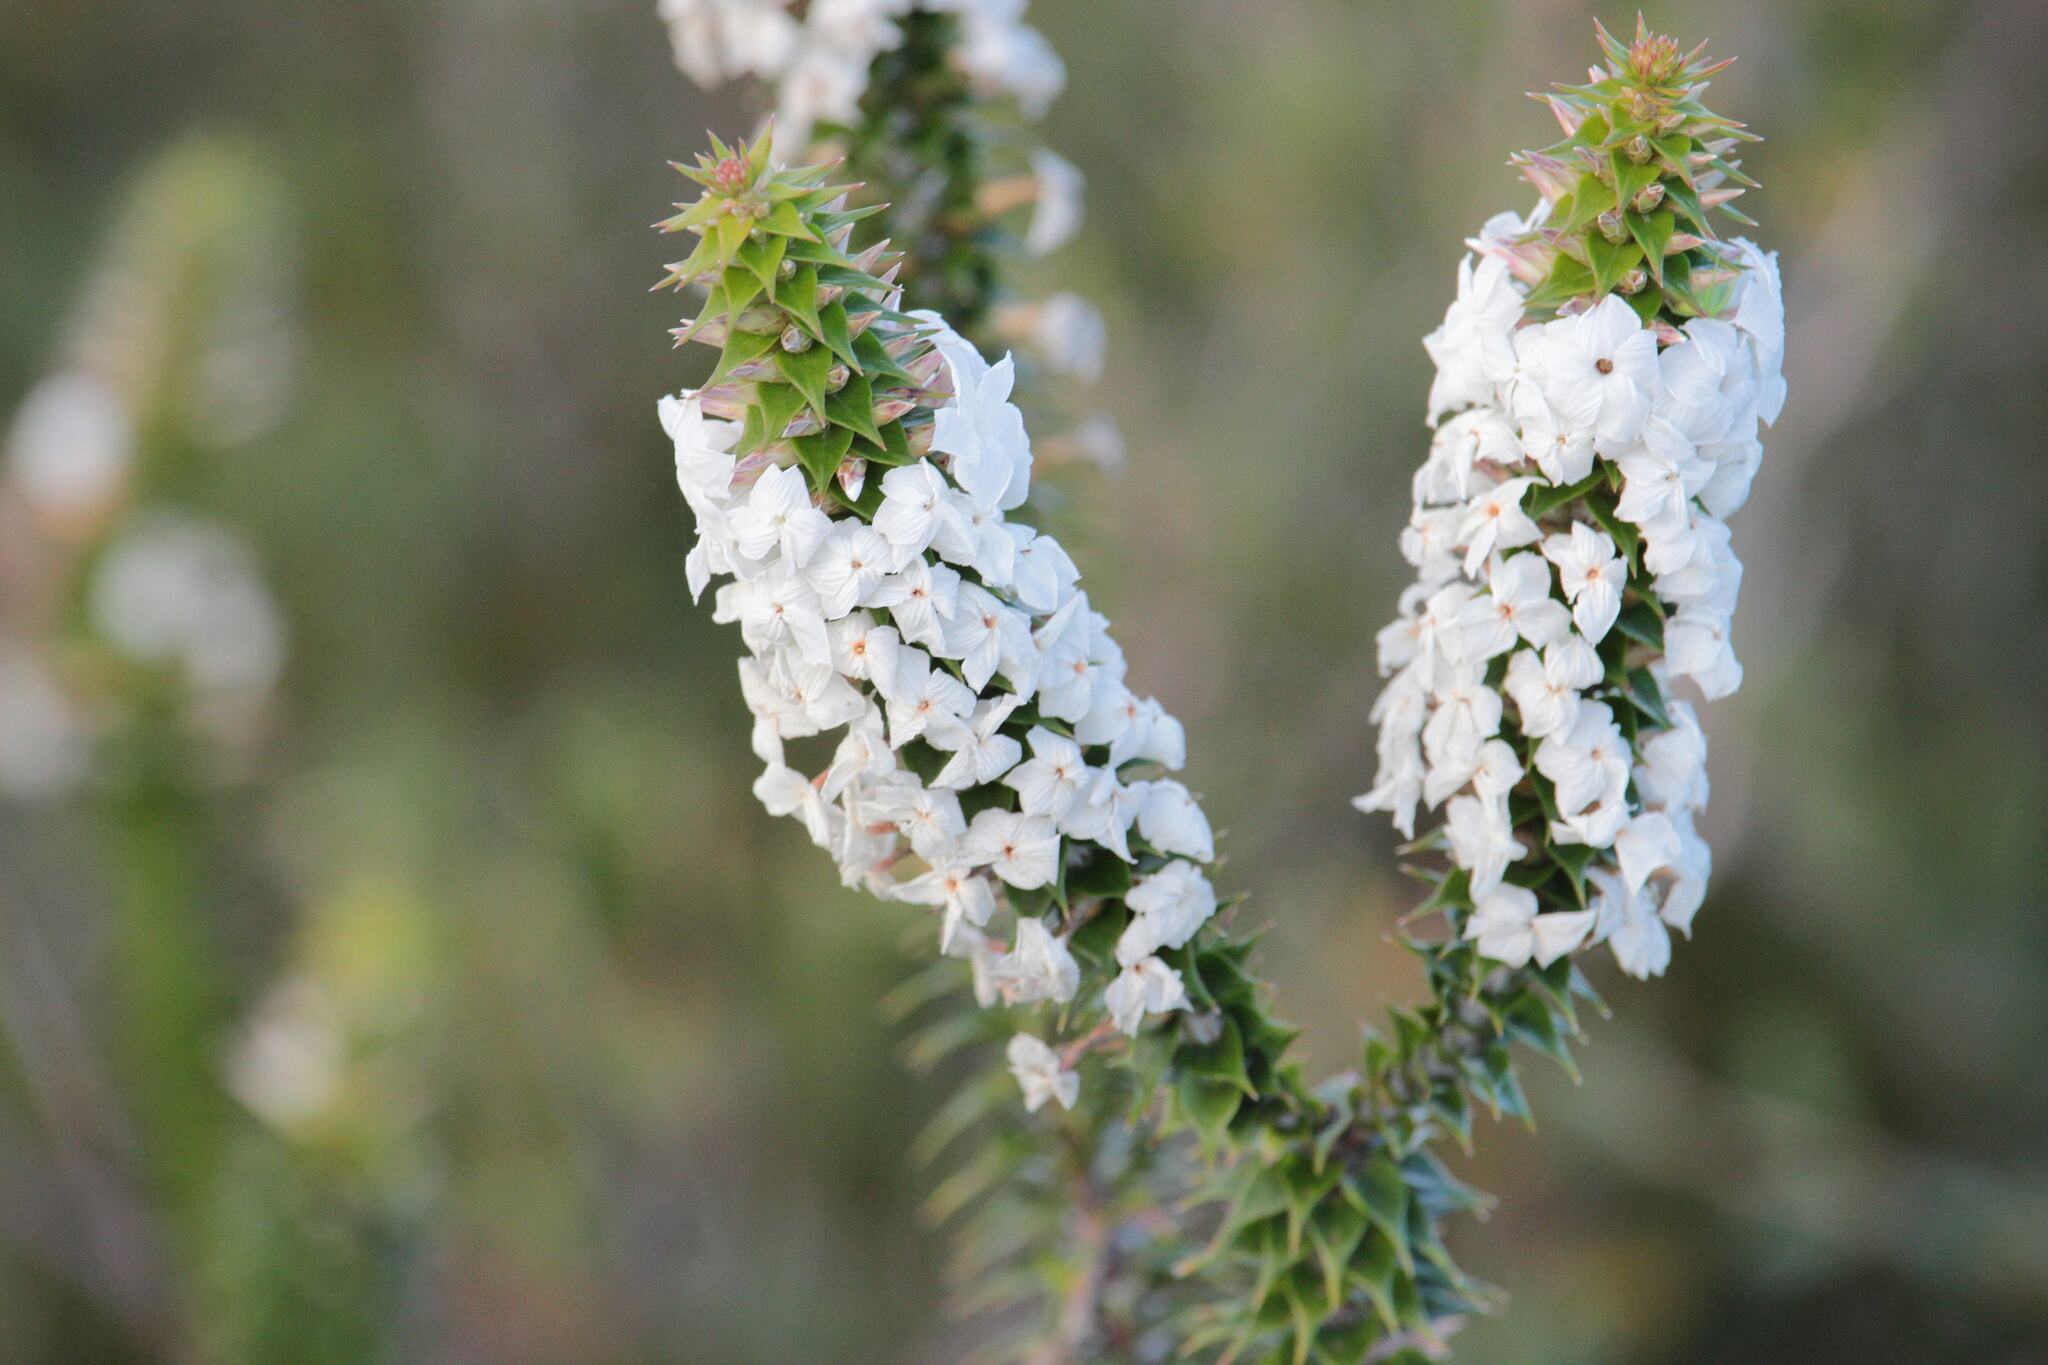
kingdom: Plantae
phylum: Tracheophyta
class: Magnoliopsida
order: Ericales
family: Ericaceae
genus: Woollsia
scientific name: Woollsia pungens
